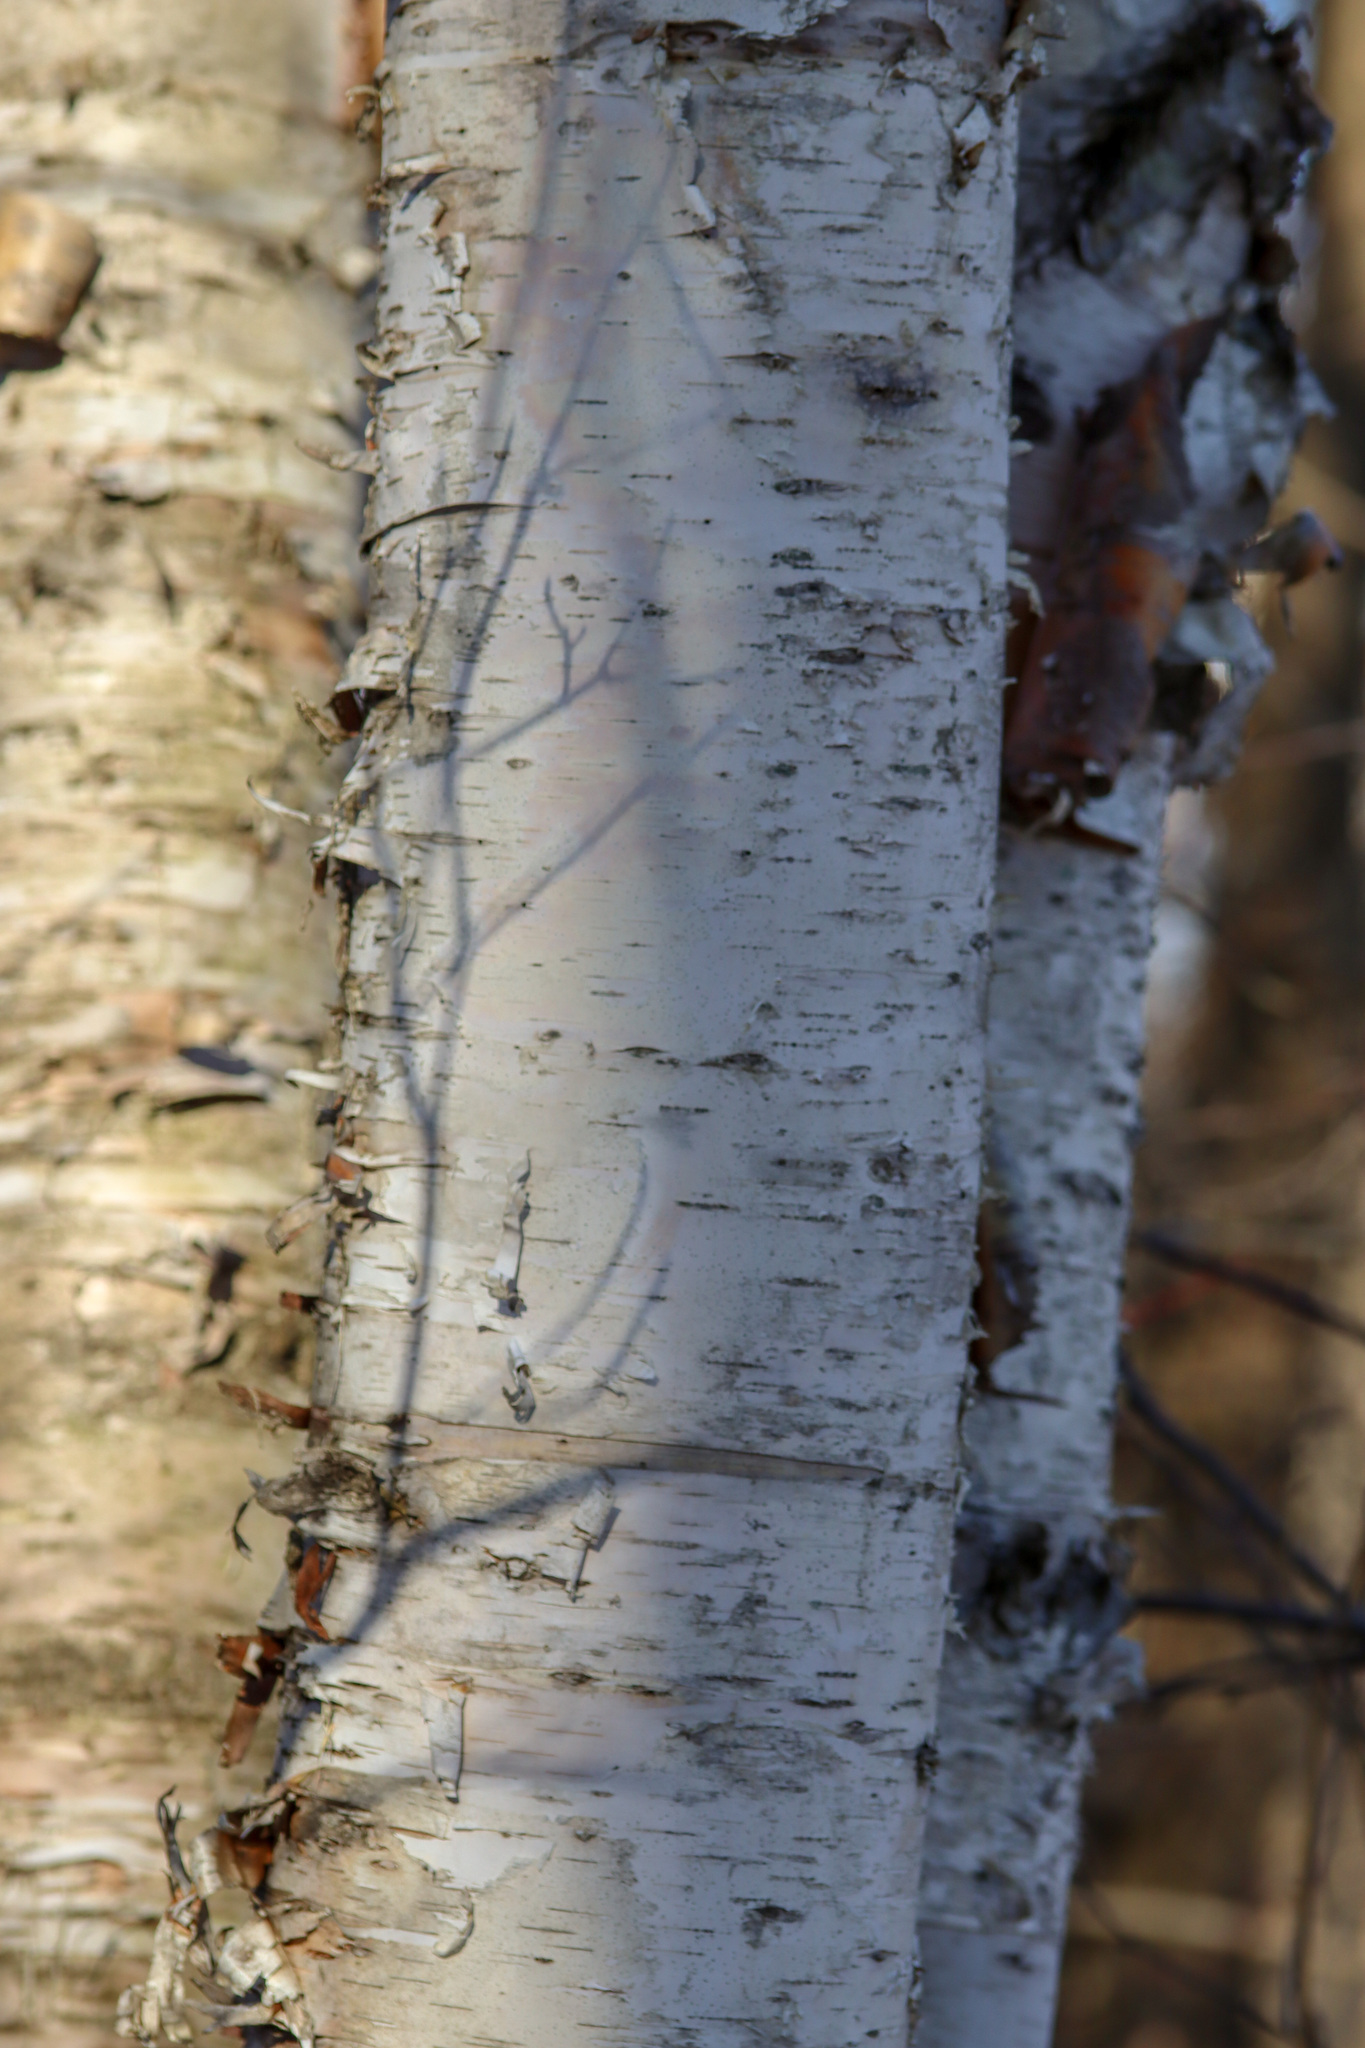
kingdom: Plantae
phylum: Tracheophyta
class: Magnoliopsida
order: Fagales
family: Betulaceae
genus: Betula
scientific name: Betula papyrifera
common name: Paper birch
